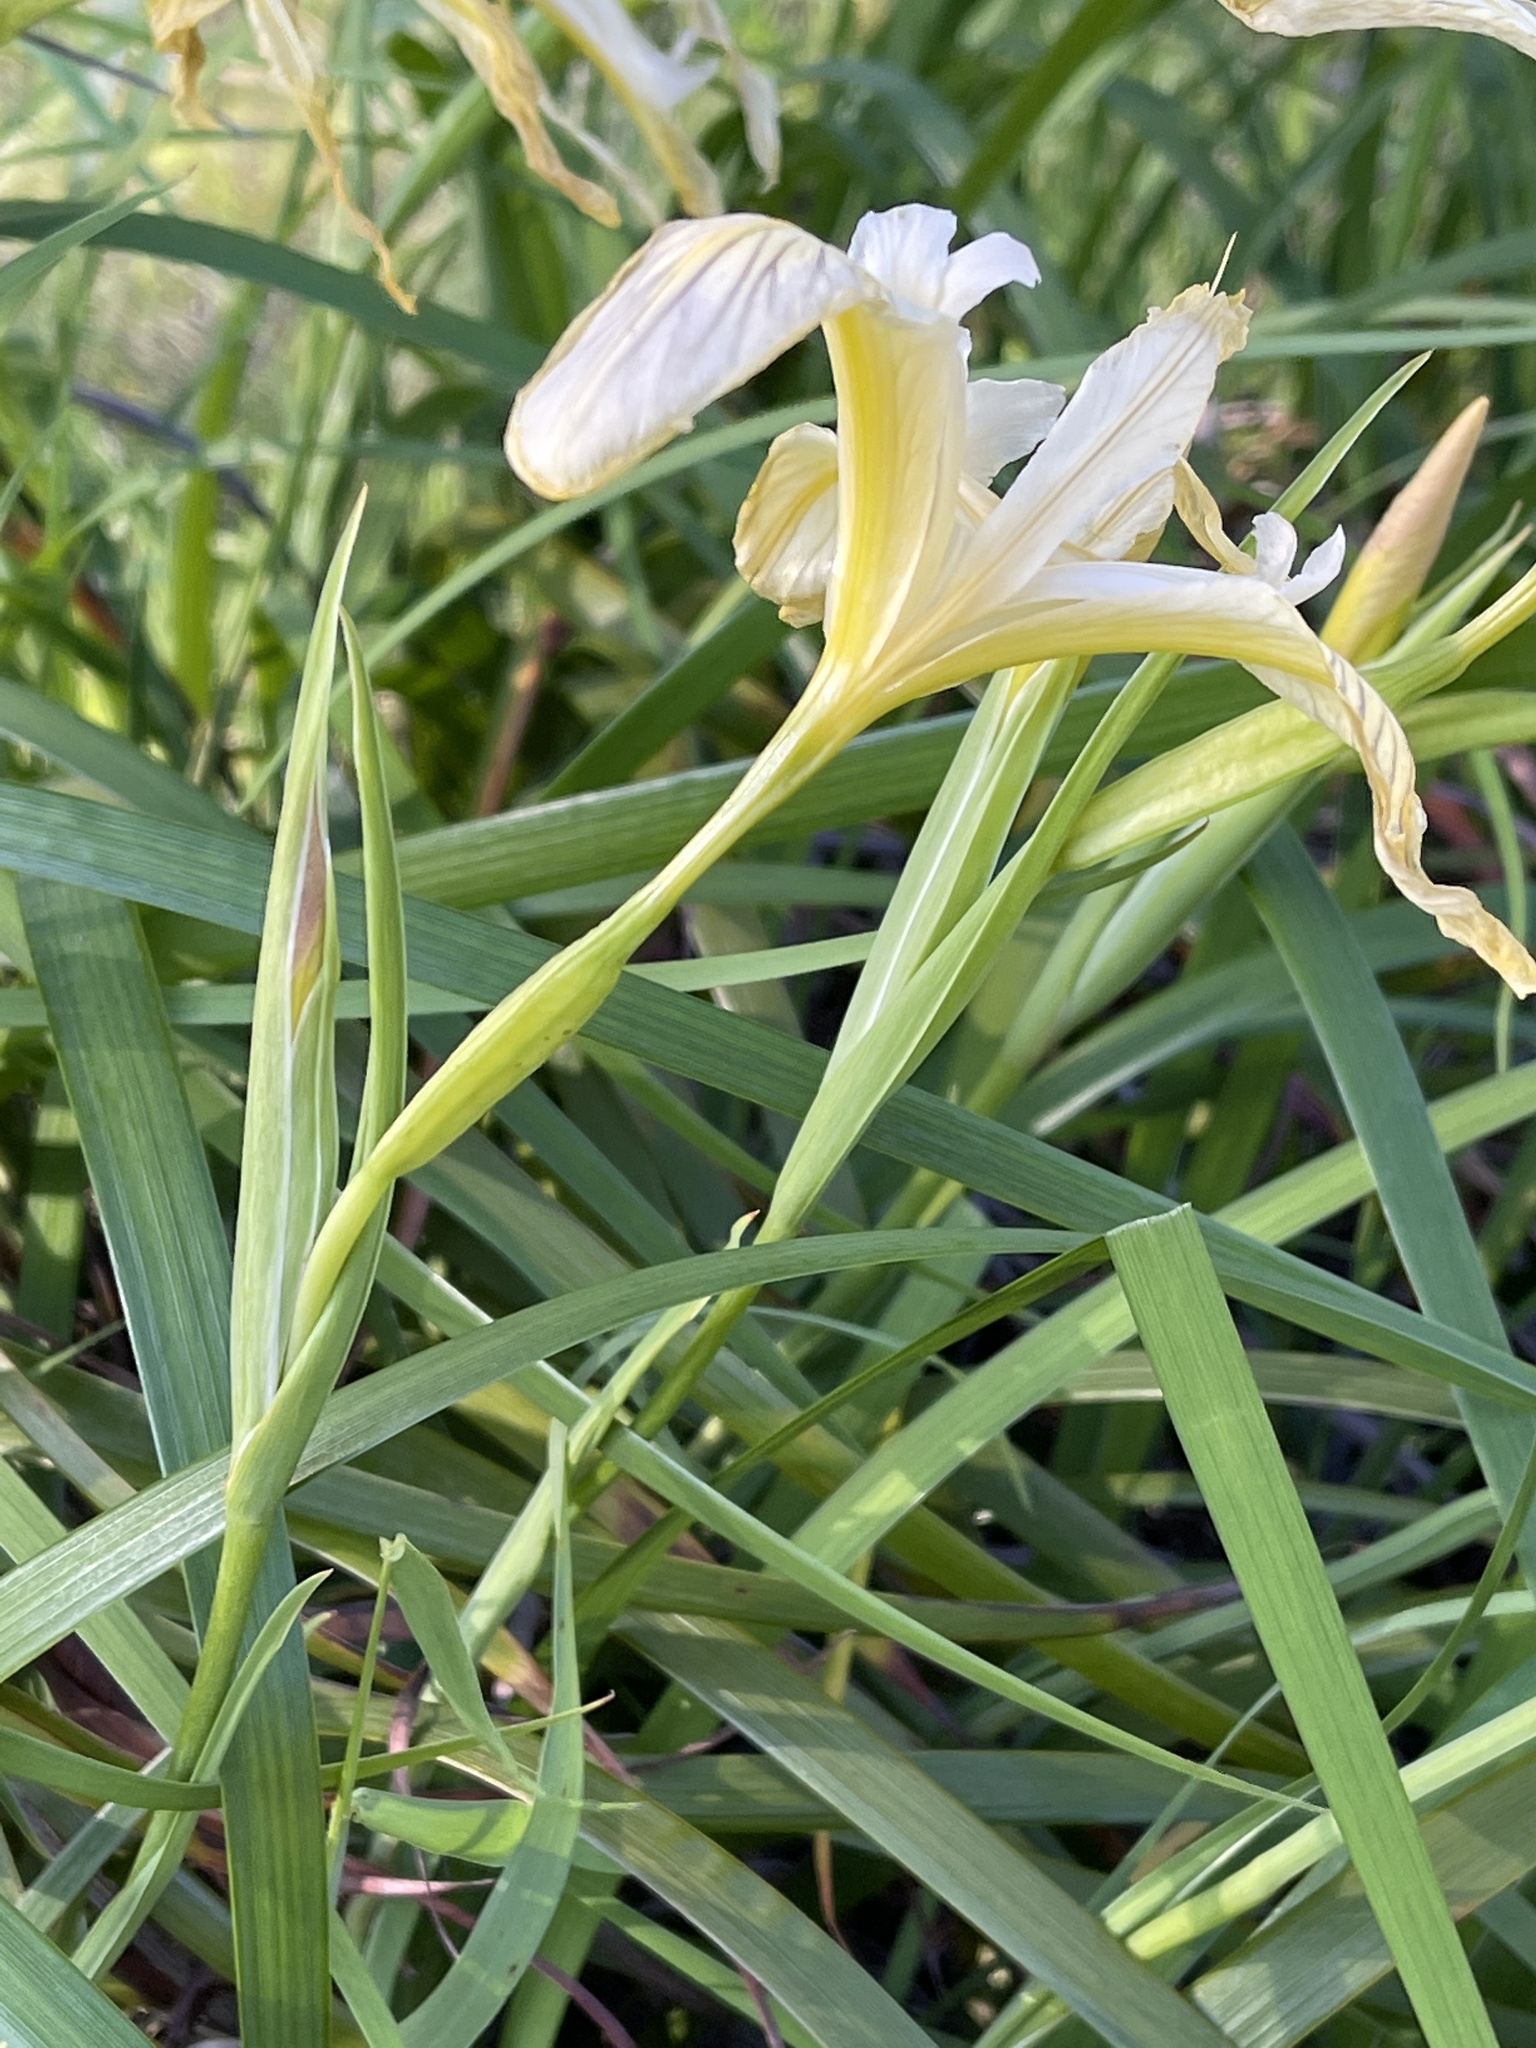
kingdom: Plantae
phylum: Tracheophyta
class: Liliopsida
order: Asparagales
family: Iridaceae
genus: Iris
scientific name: Iris douglasiana
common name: Marin iris
